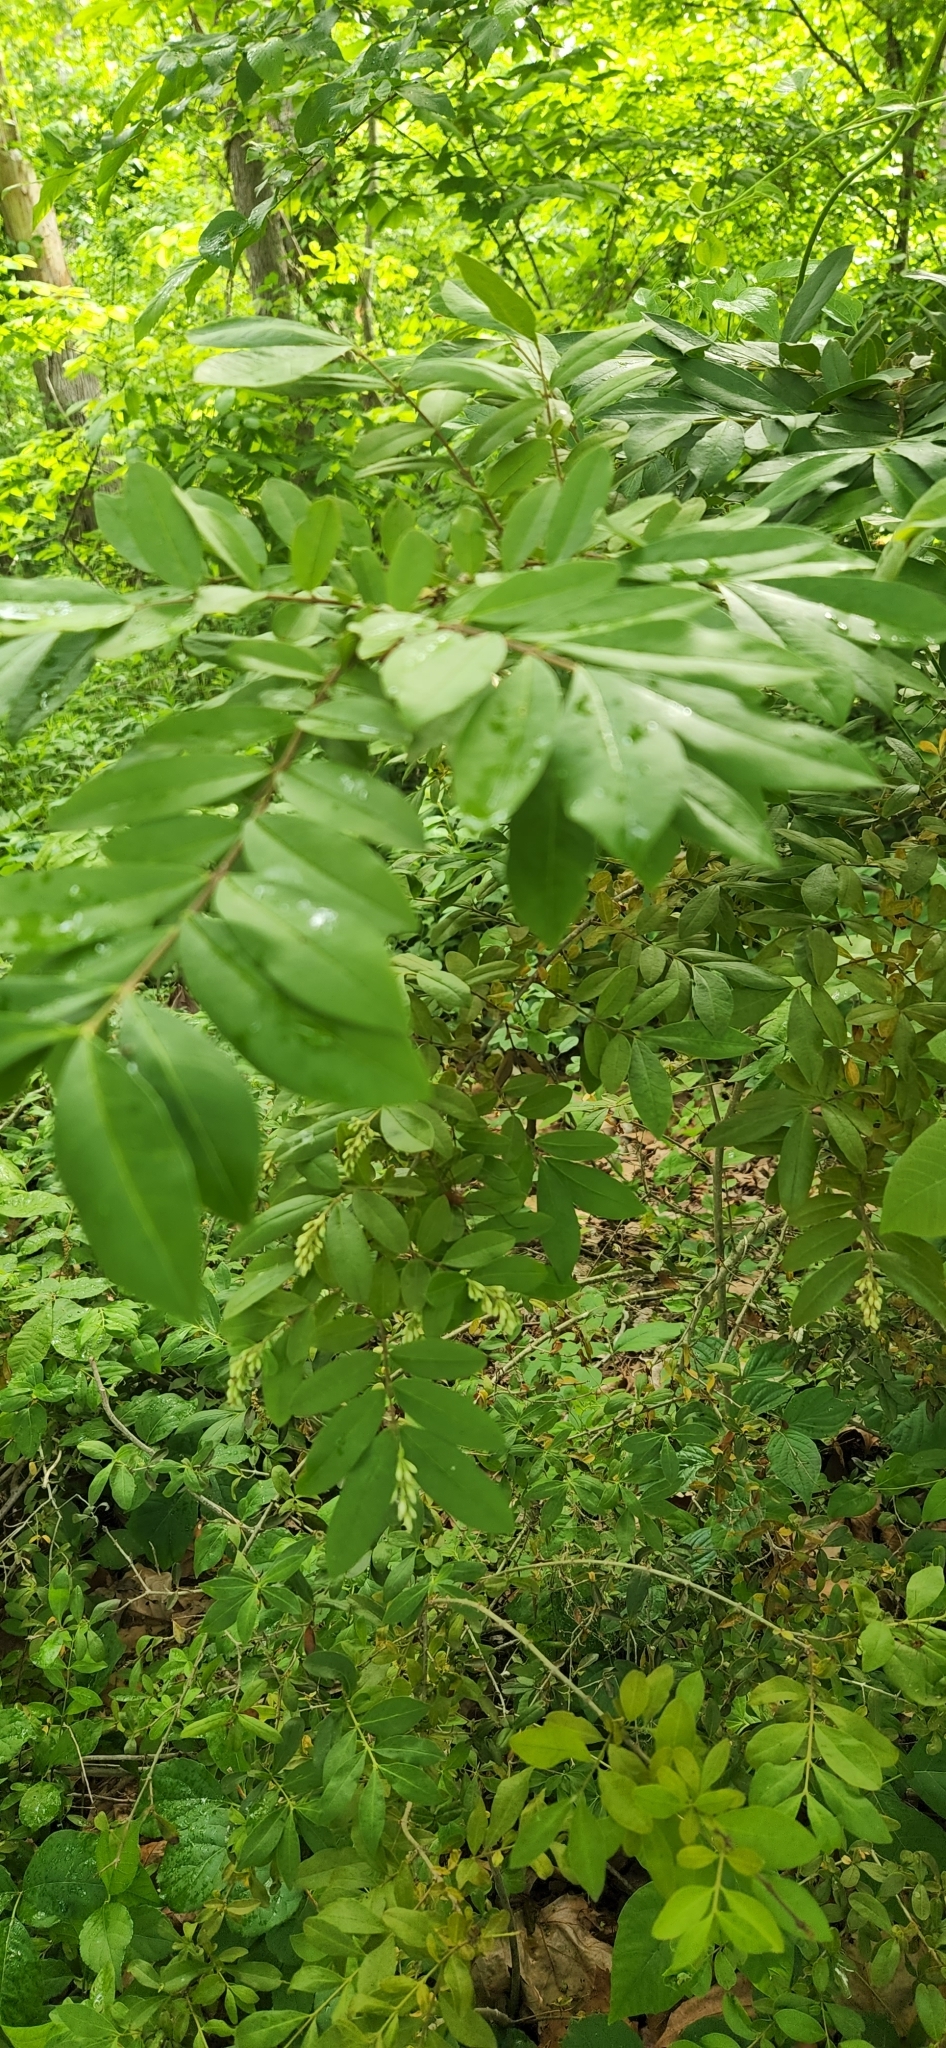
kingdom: Plantae
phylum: Tracheophyta
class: Magnoliopsida
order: Lamiales
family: Oleaceae
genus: Ligustrum
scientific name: Ligustrum obtusifolium
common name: Border privet
